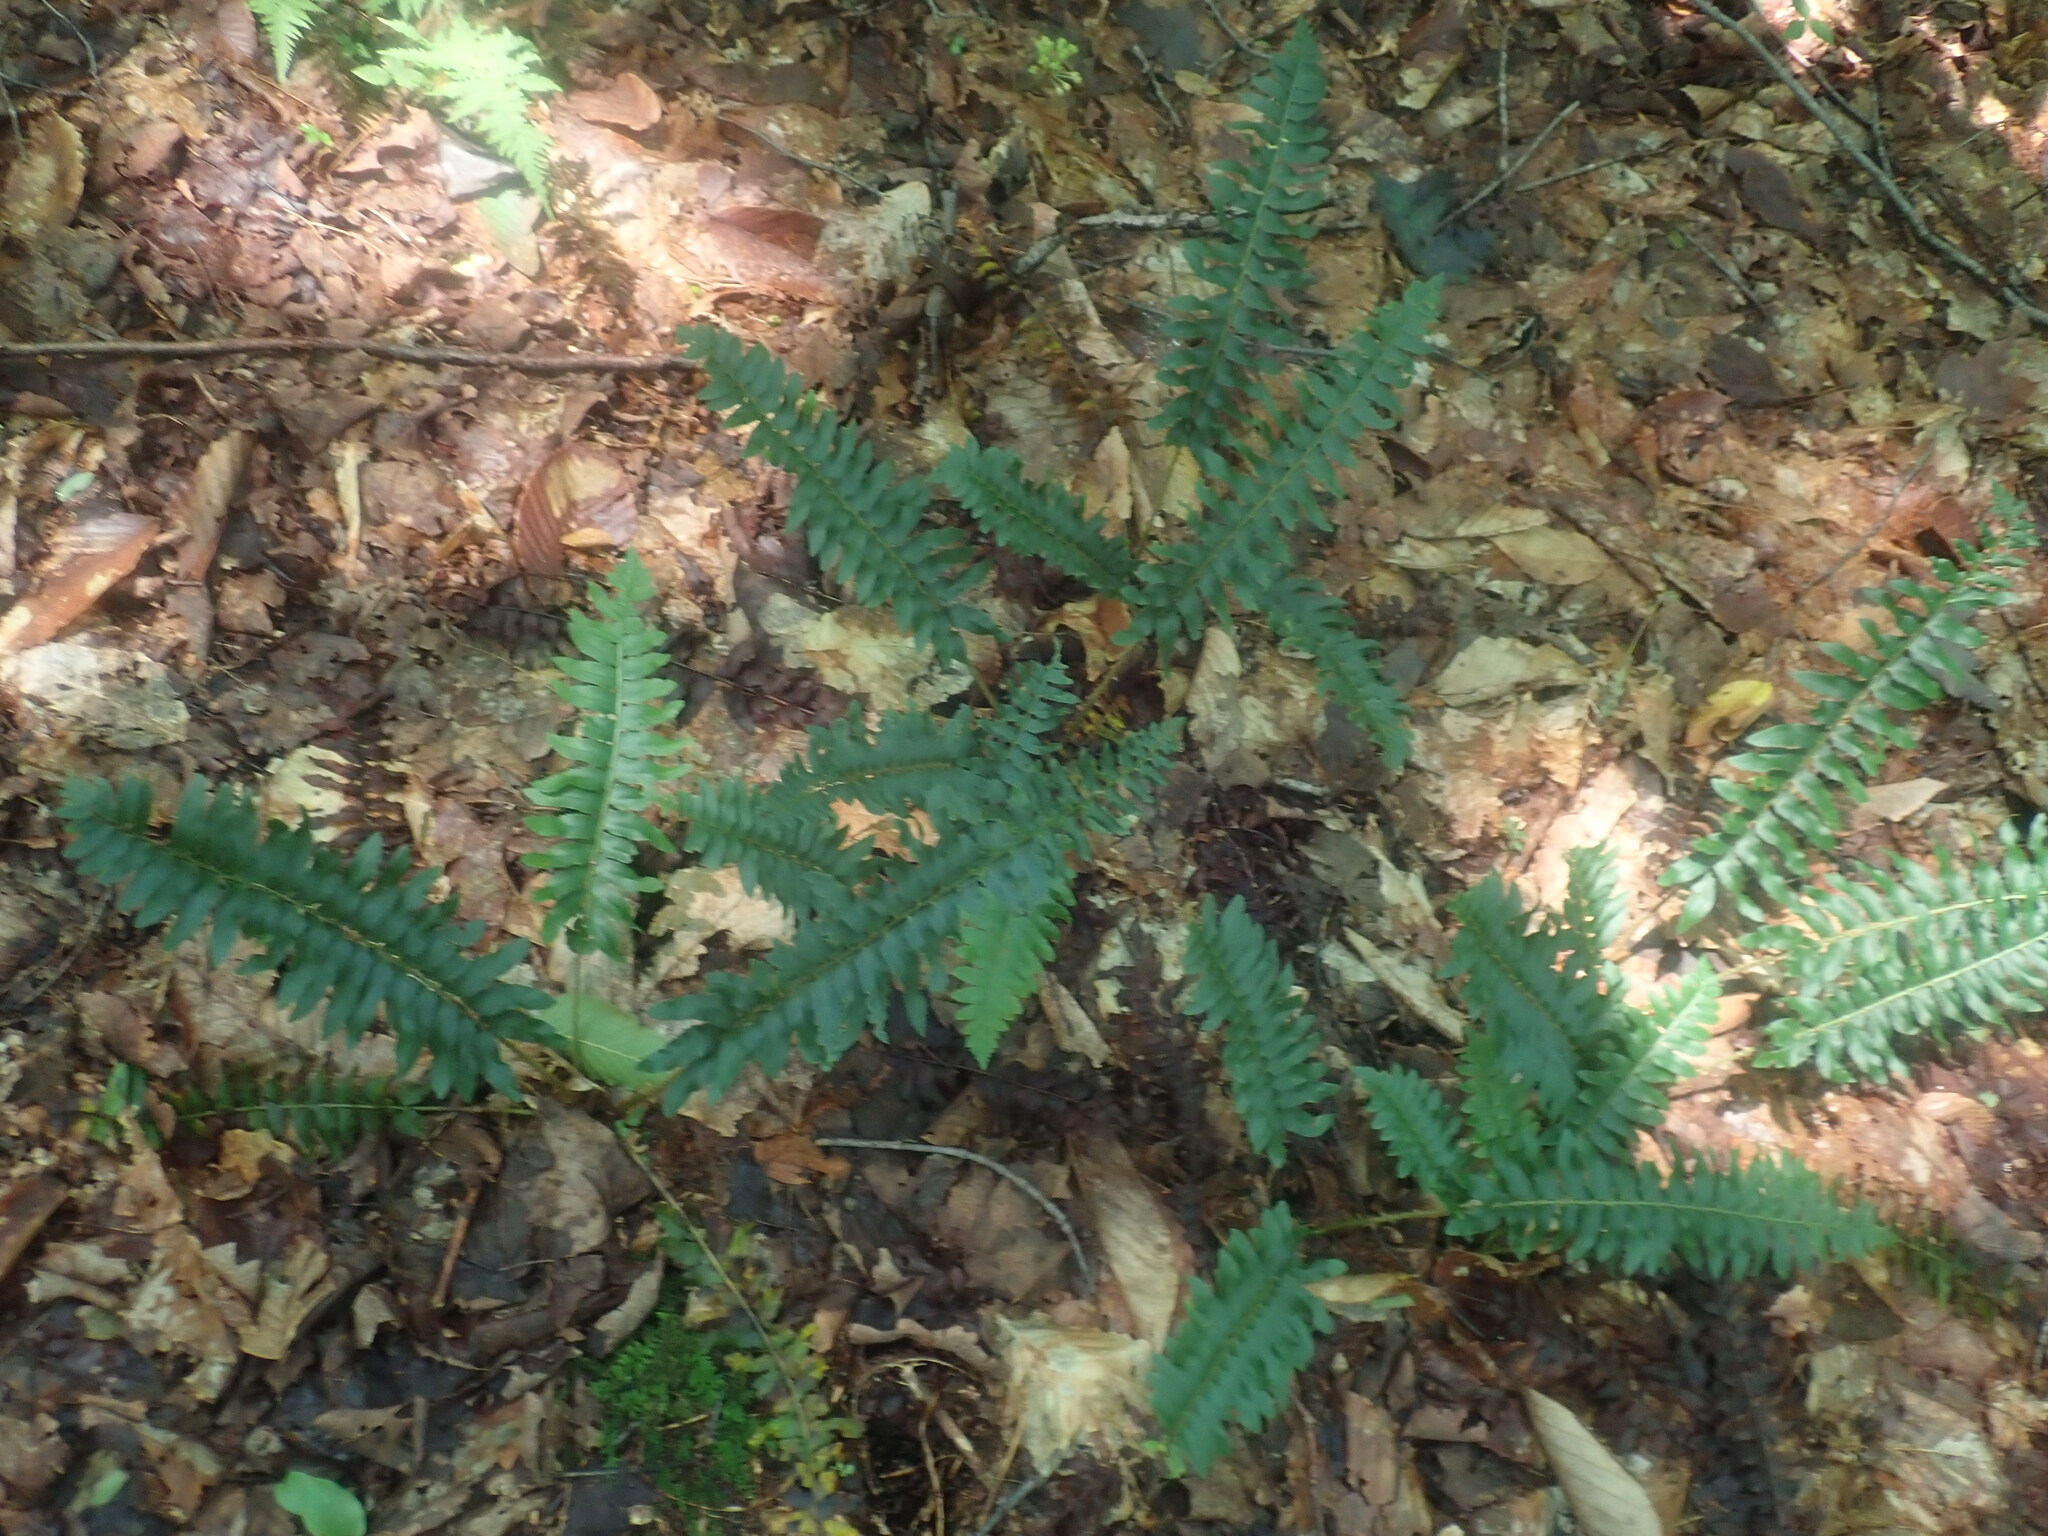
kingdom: Plantae
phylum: Tracheophyta
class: Polypodiopsida
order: Polypodiales
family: Dryopteridaceae
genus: Polystichum
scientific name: Polystichum acrostichoides
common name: Christmas fern
